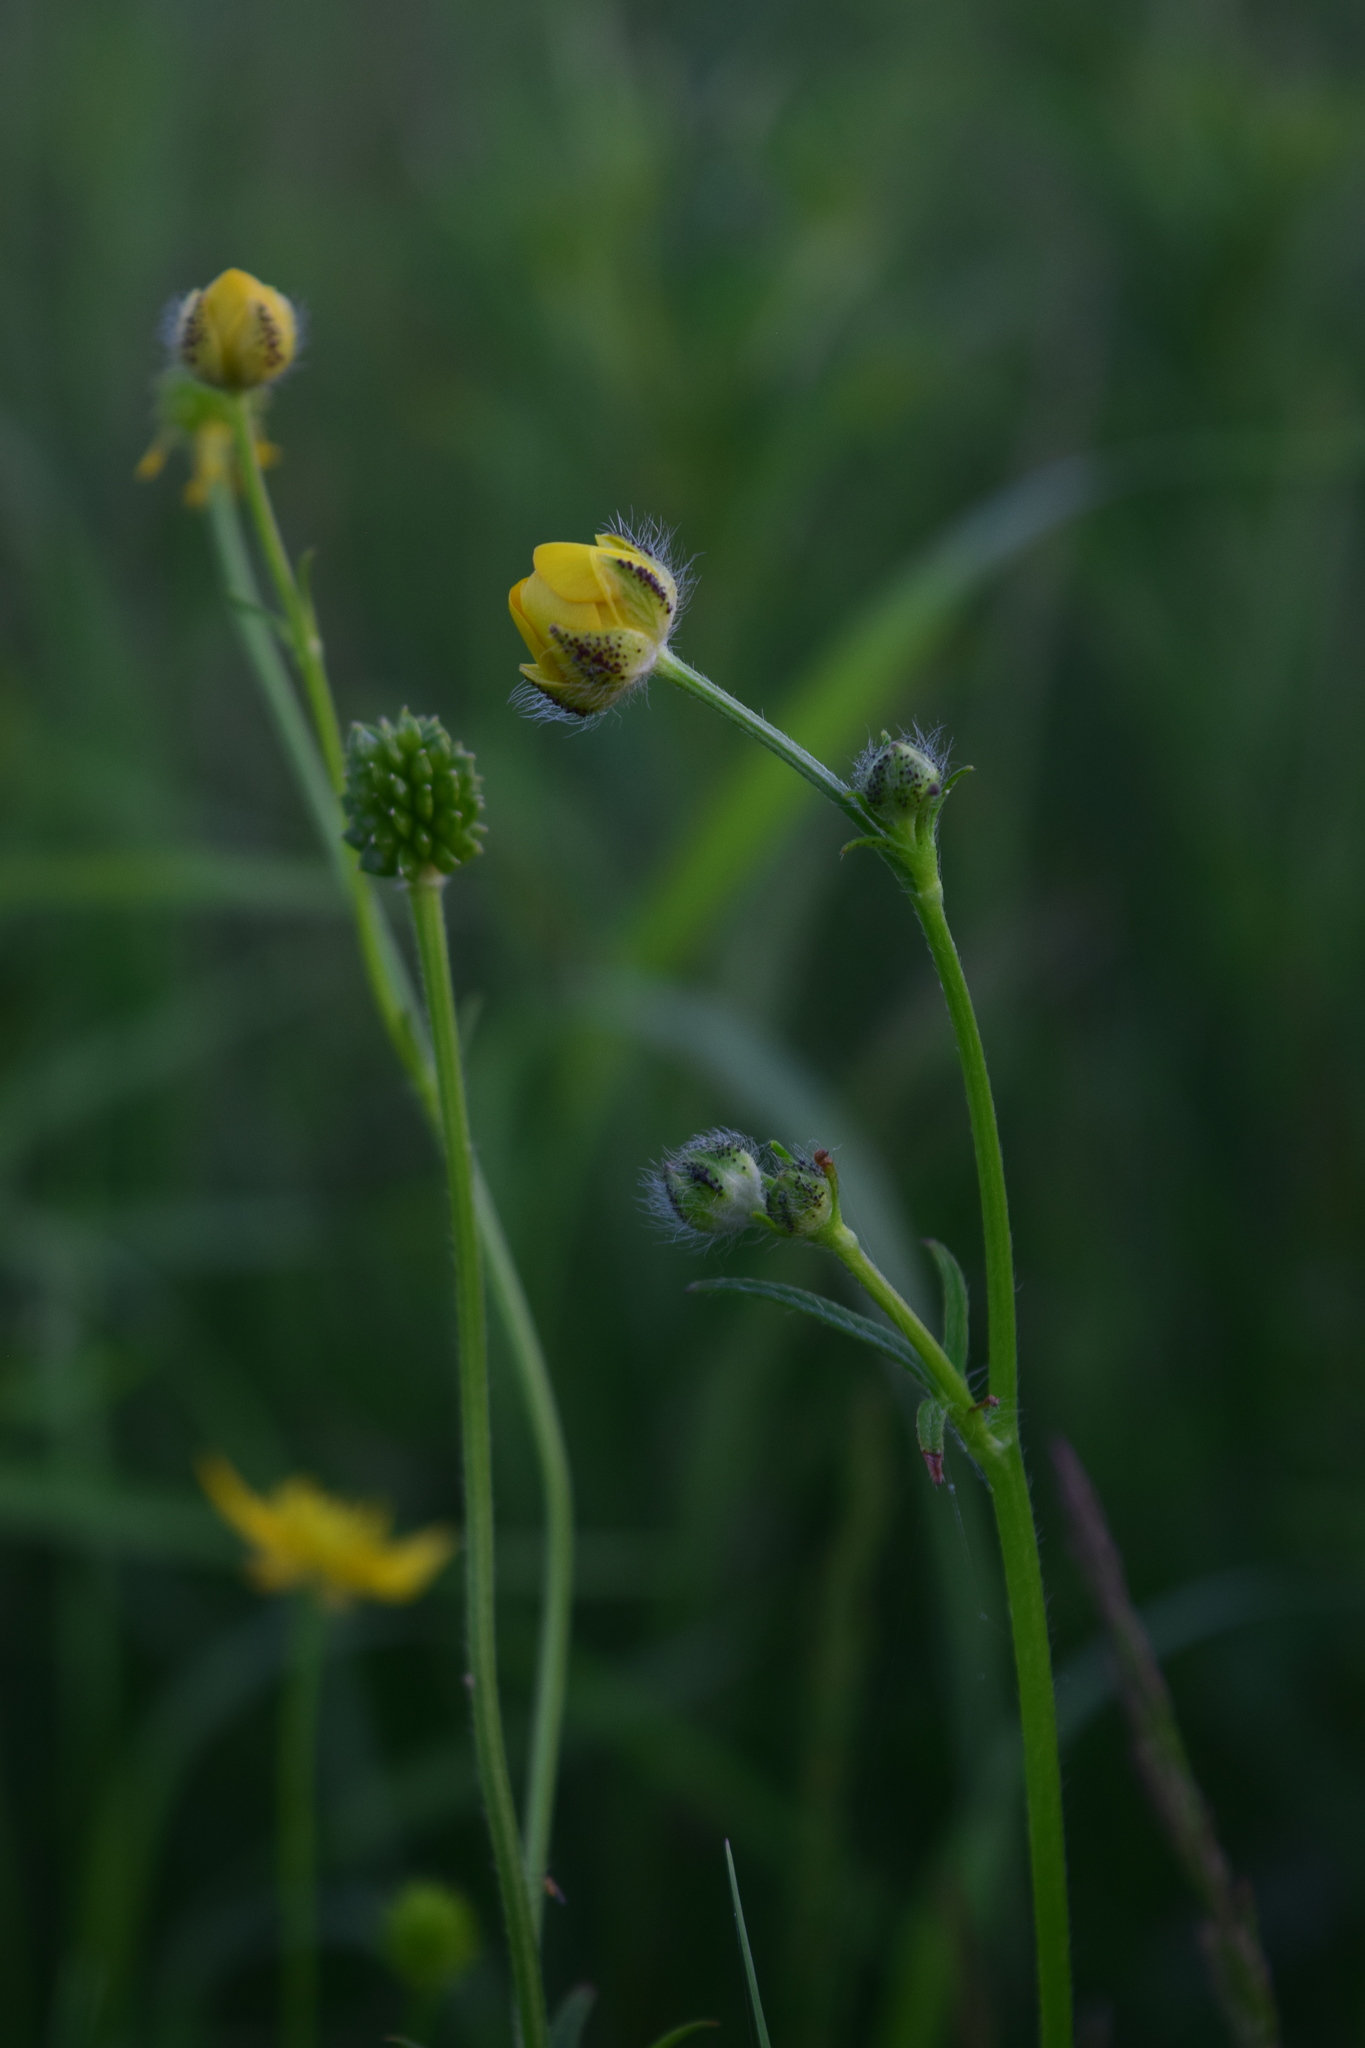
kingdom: Plantae
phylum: Tracheophyta
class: Magnoliopsida
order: Ranunculales
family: Ranunculaceae
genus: Ranunculus
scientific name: Ranunculus polyanthemos
